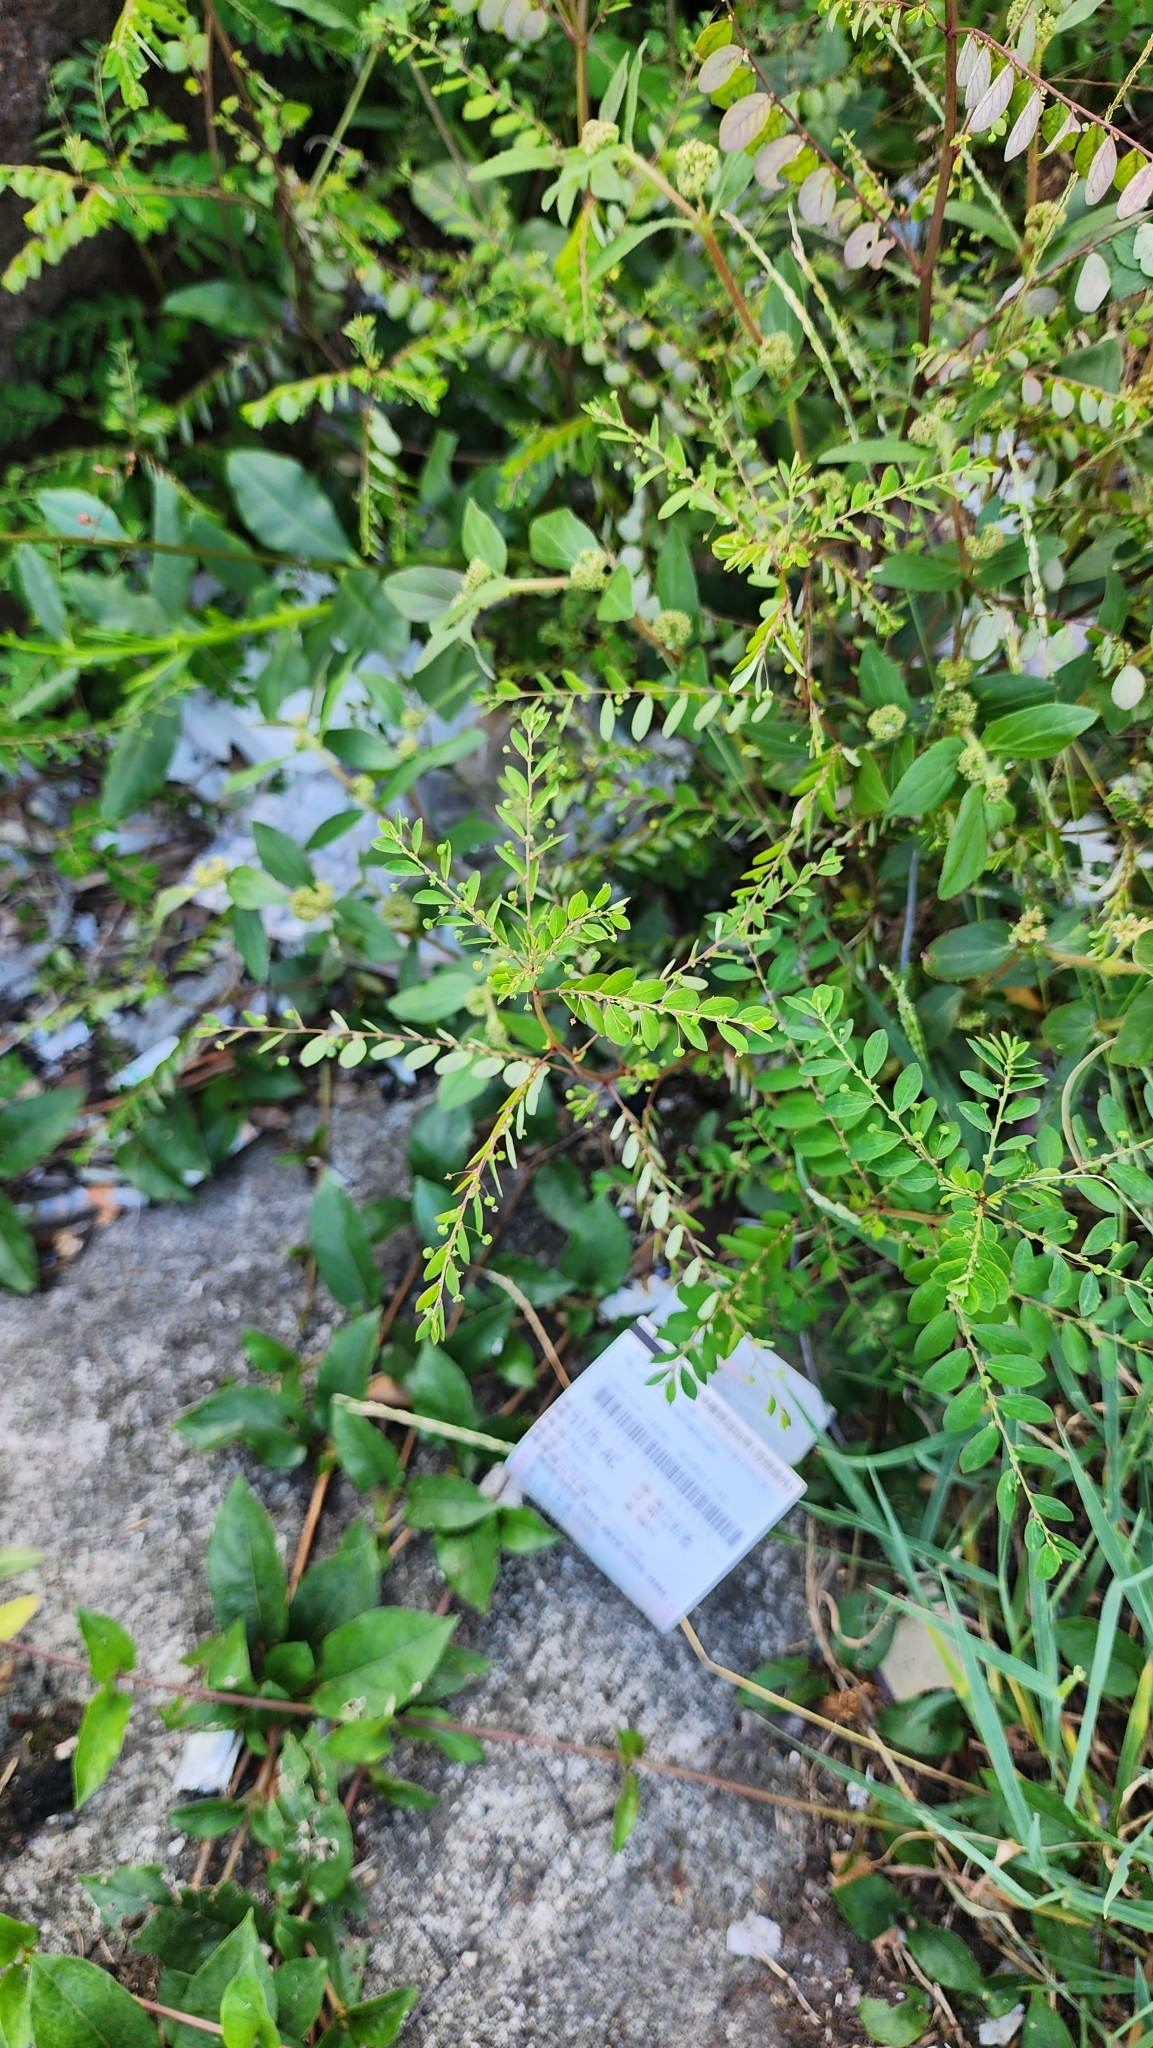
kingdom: Plantae
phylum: Tracheophyta
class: Magnoliopsida
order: Malpighiales
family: Phyllanthaceae
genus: Phyllanthus
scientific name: Phyllanthus tenellus
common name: Mascarene island leaf-flower
